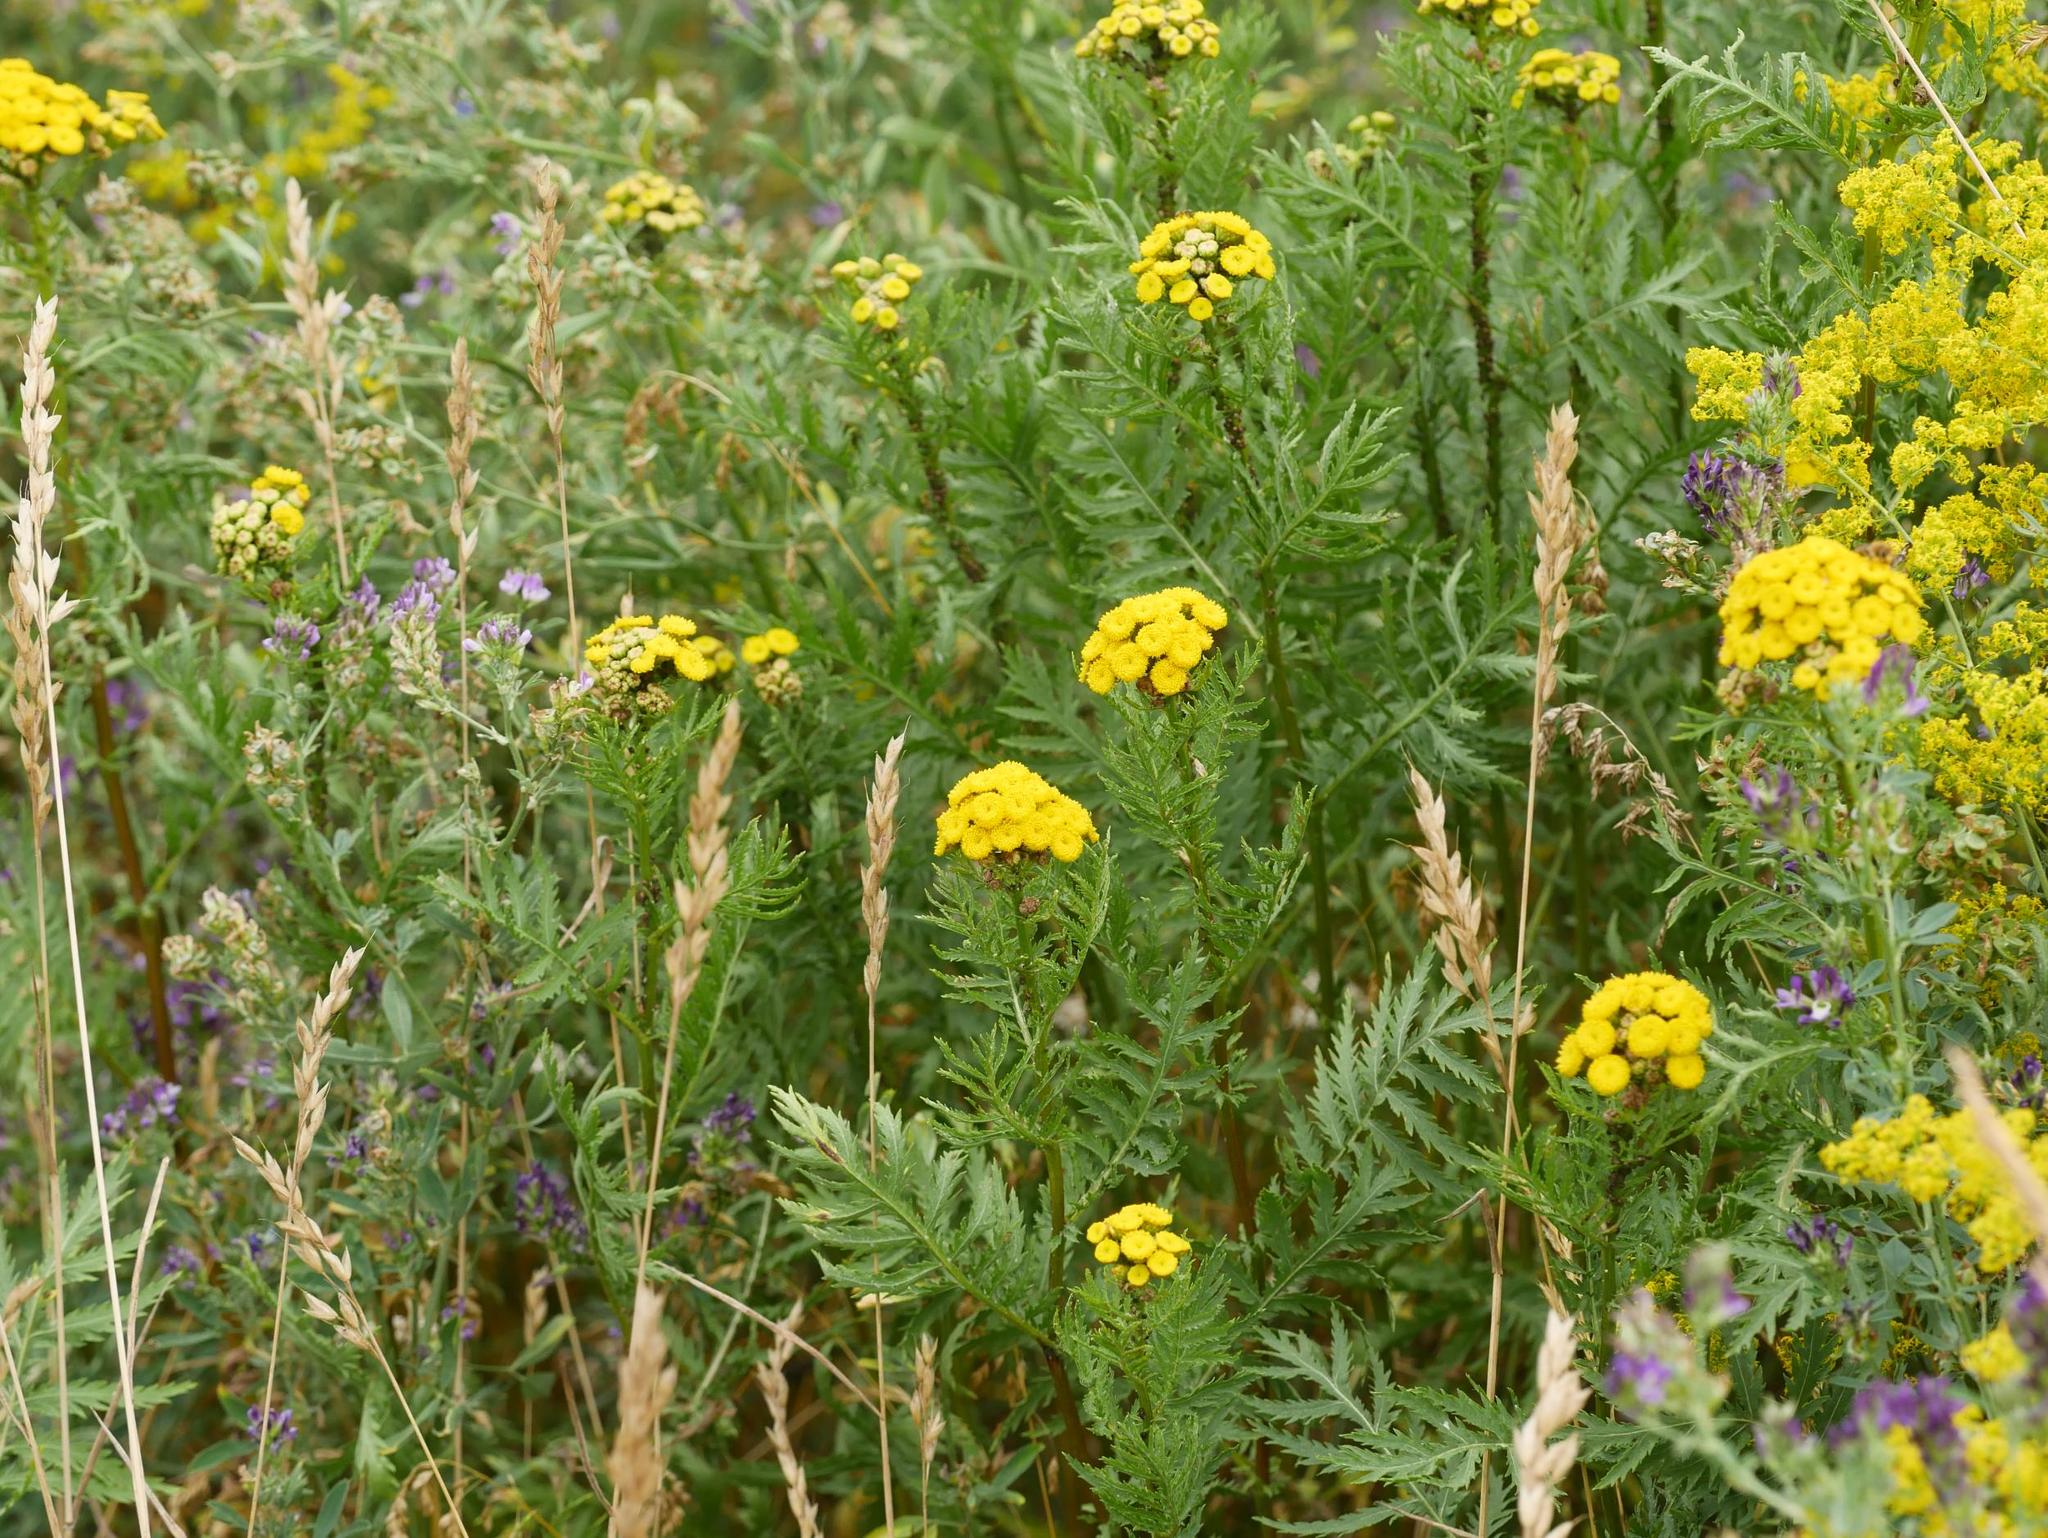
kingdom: Plantae
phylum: Tracheophyta
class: Magnoliopsida
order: Asterales
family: Asteraceae
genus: Tanacetum
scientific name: Tanacetum vulgare
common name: Common tansy
